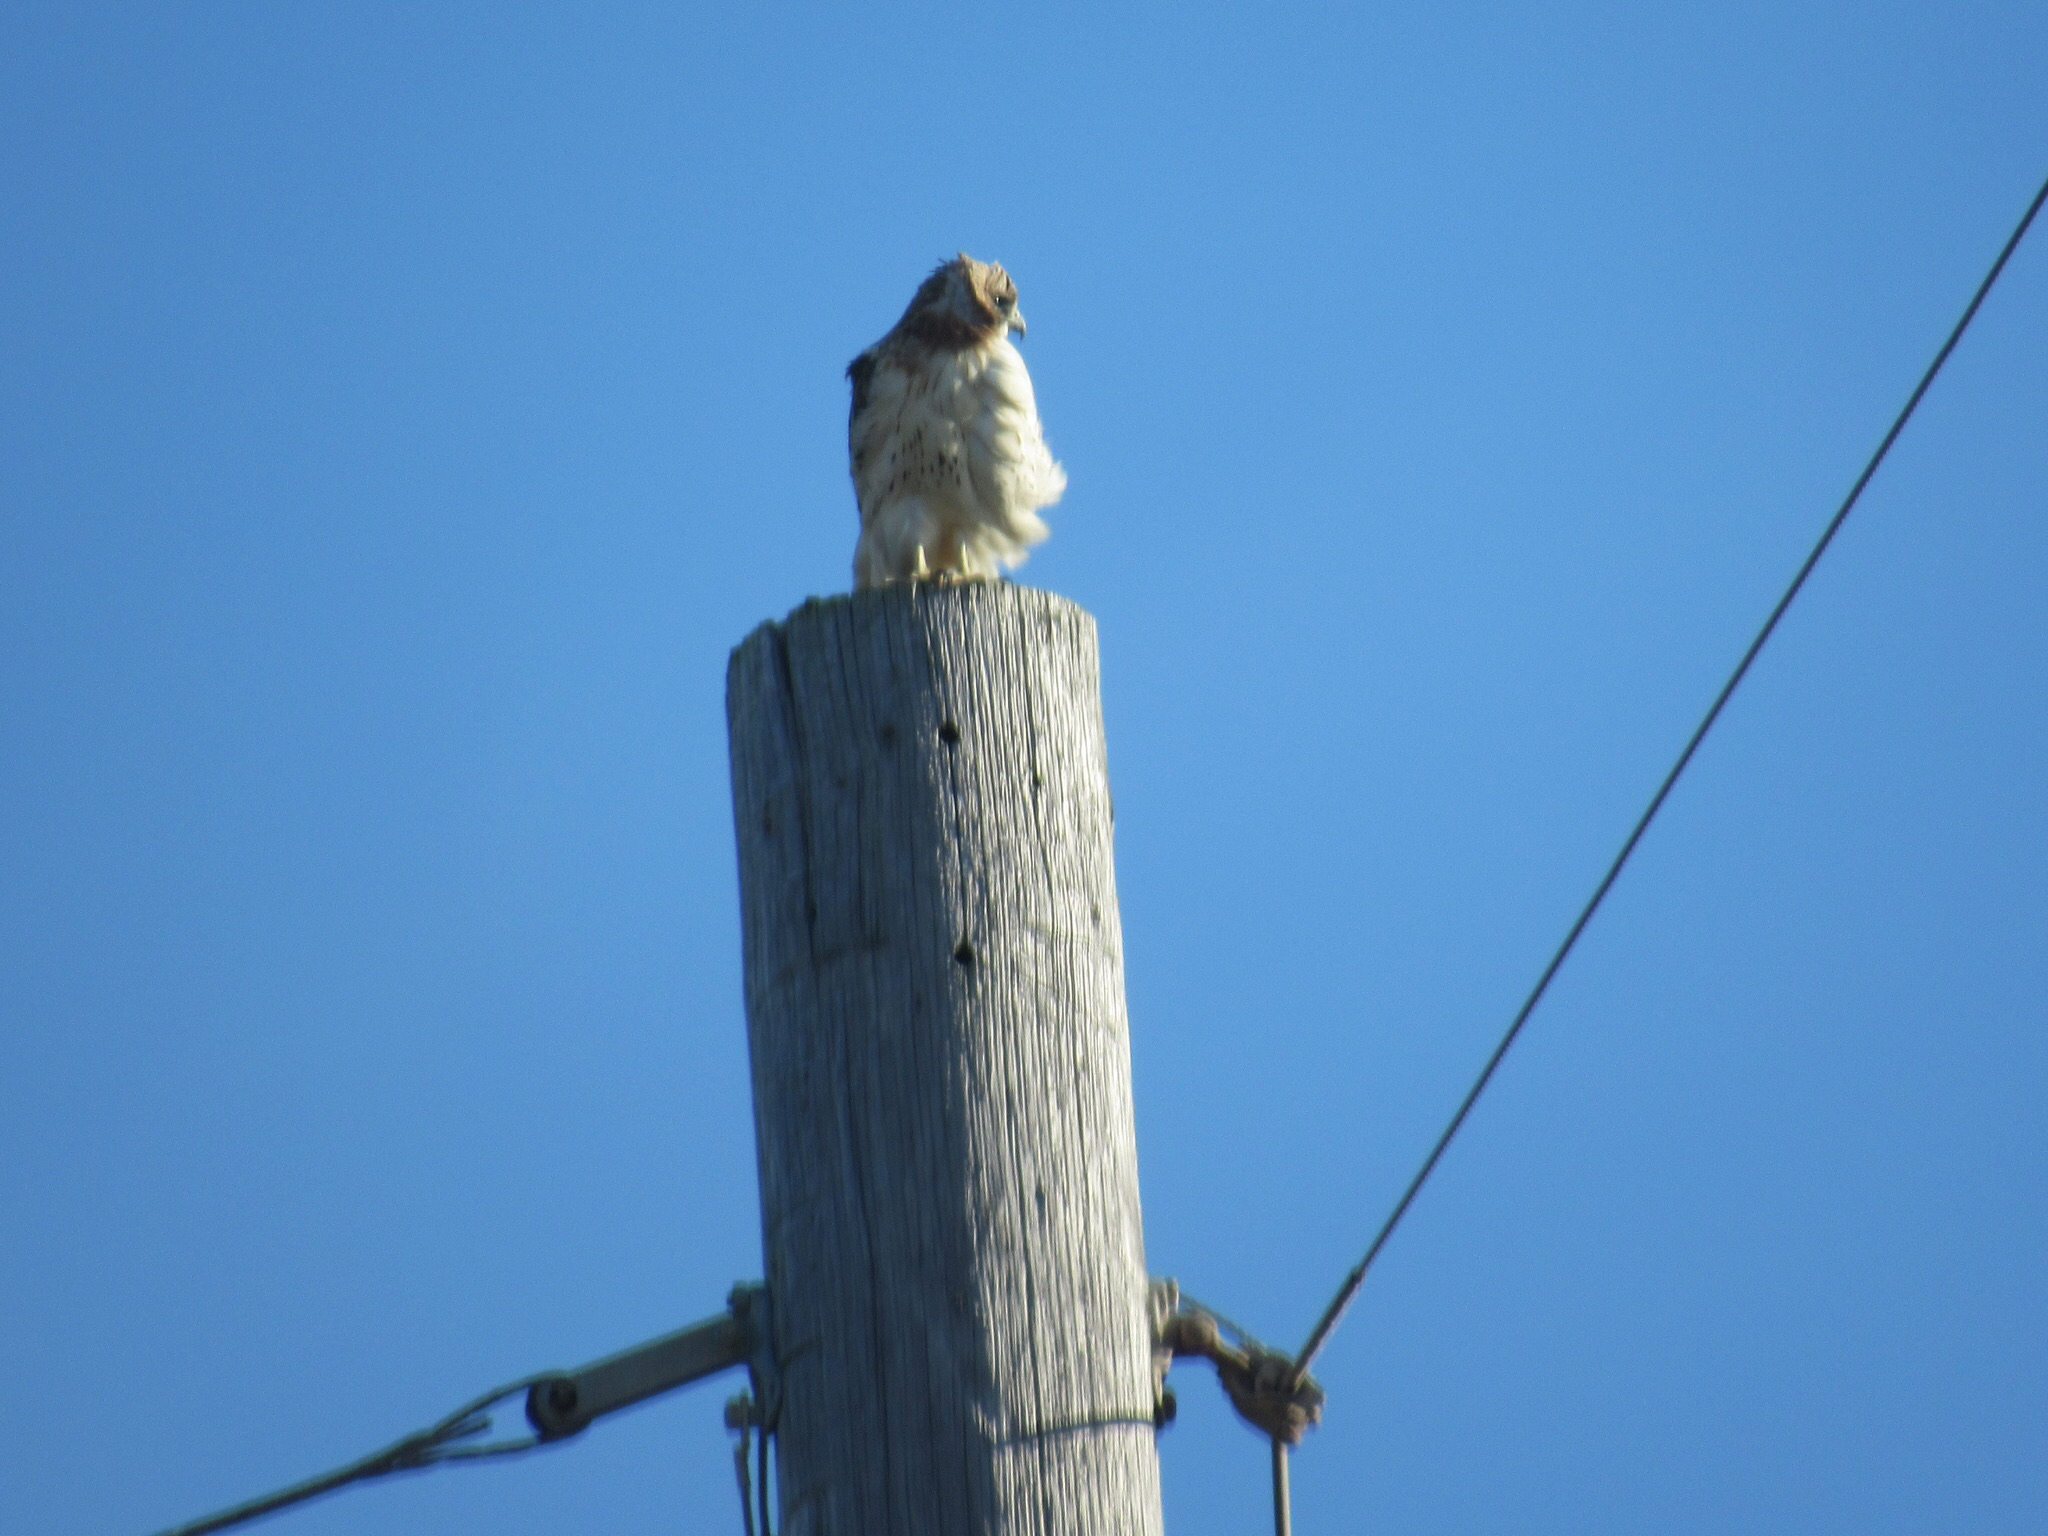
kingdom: Animalia
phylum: Chordata
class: Aves
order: Accipitriformes
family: Accipitridae
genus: Buteo
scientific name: Buteo jamaicensis
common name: Red-tailed hawk
